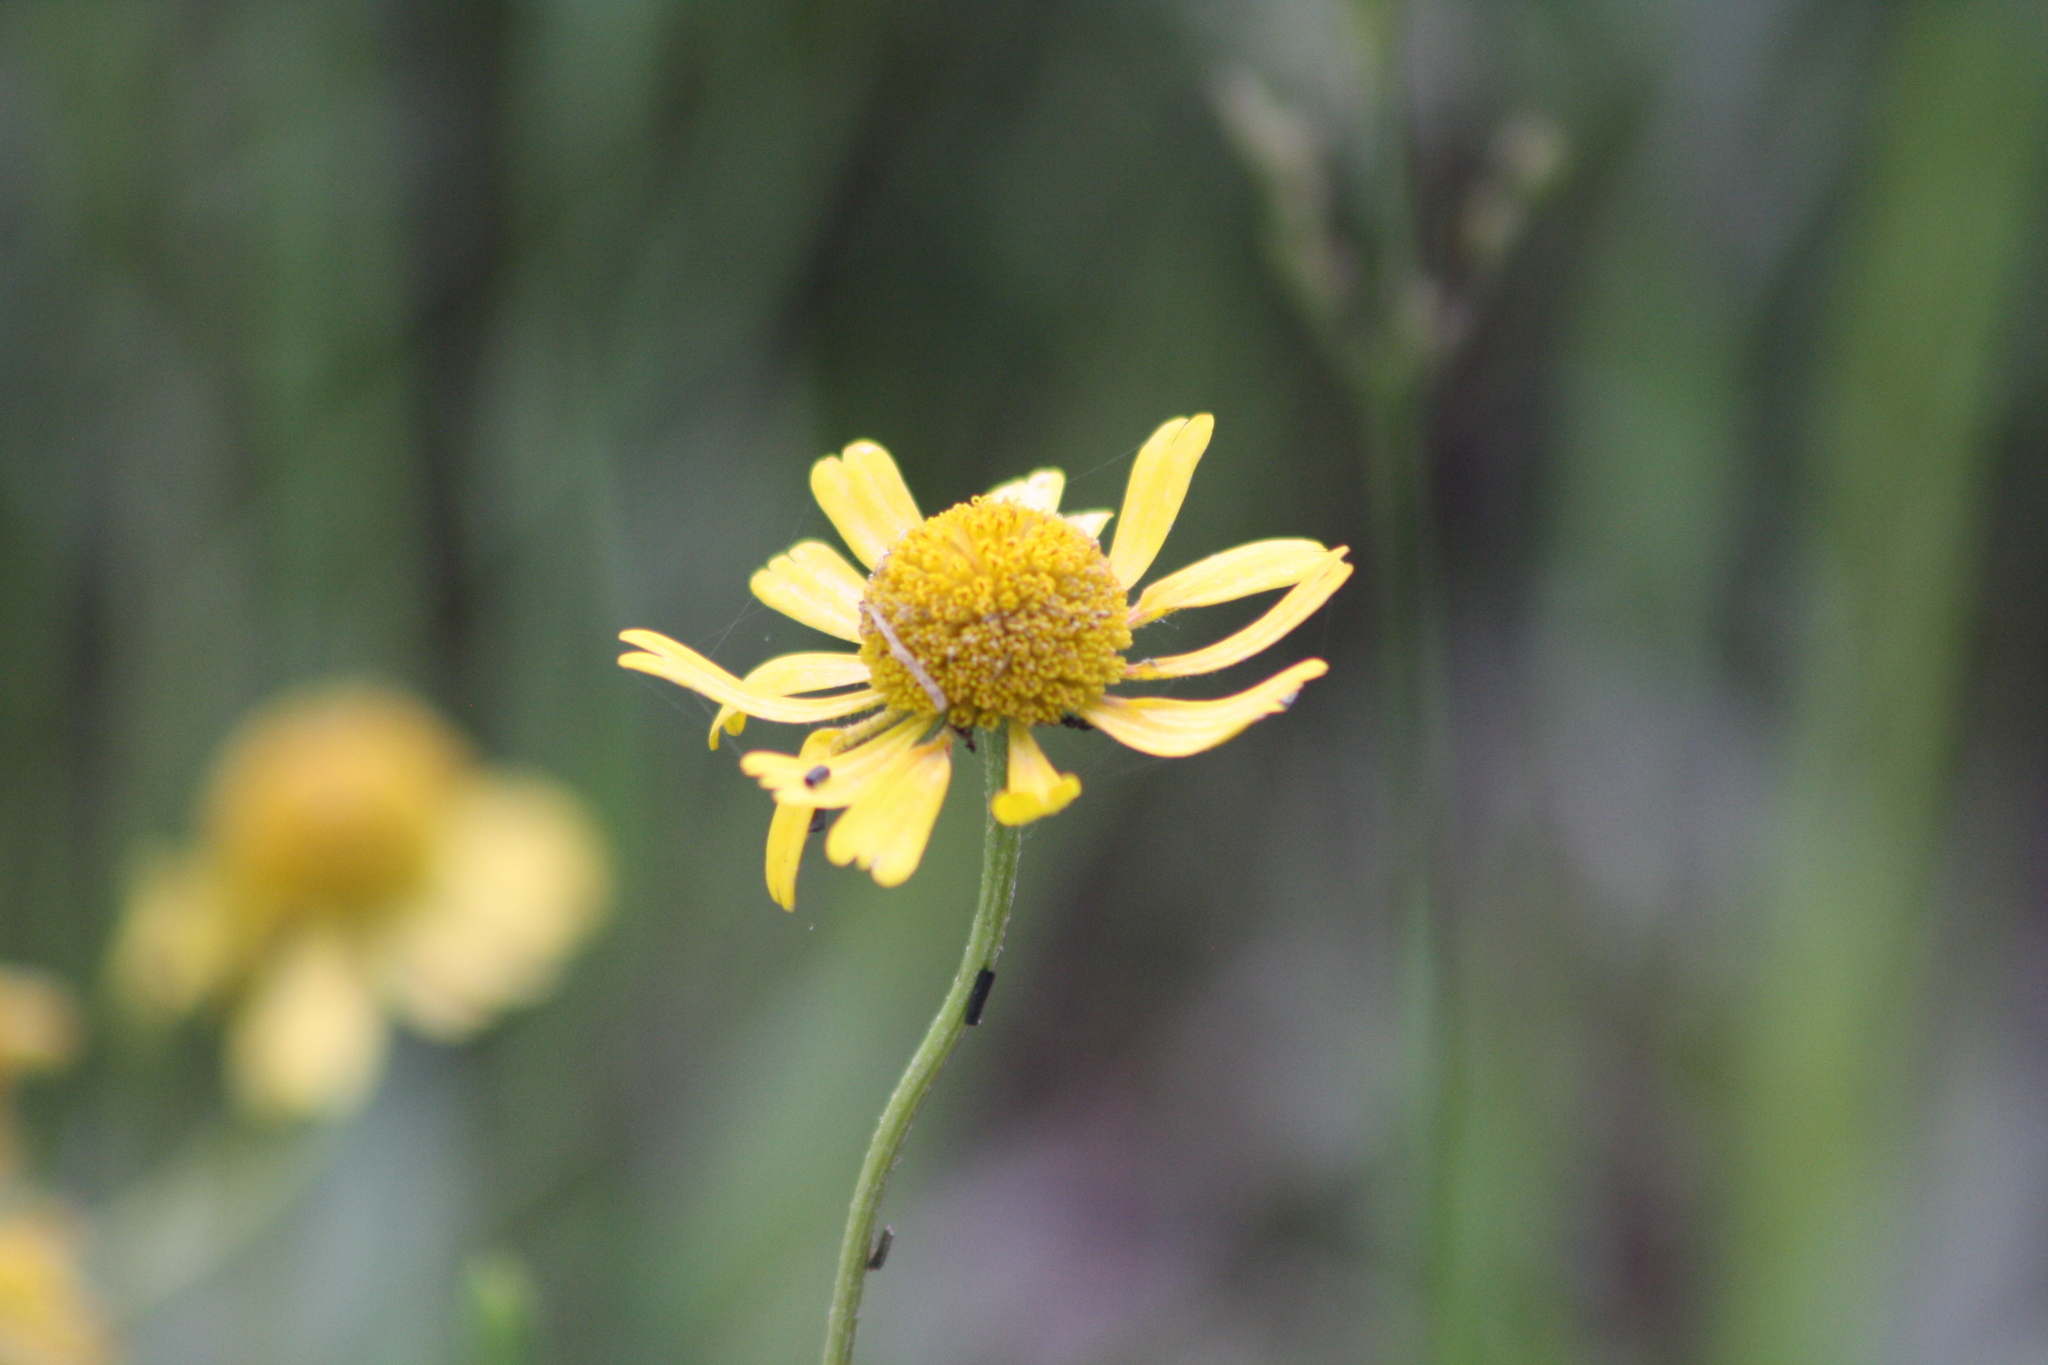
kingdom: Plantae
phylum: Tracheophyta
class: Magnoliopsida
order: Asterales
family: Asteraceae
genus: Helenium
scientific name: Helenium drummondii
